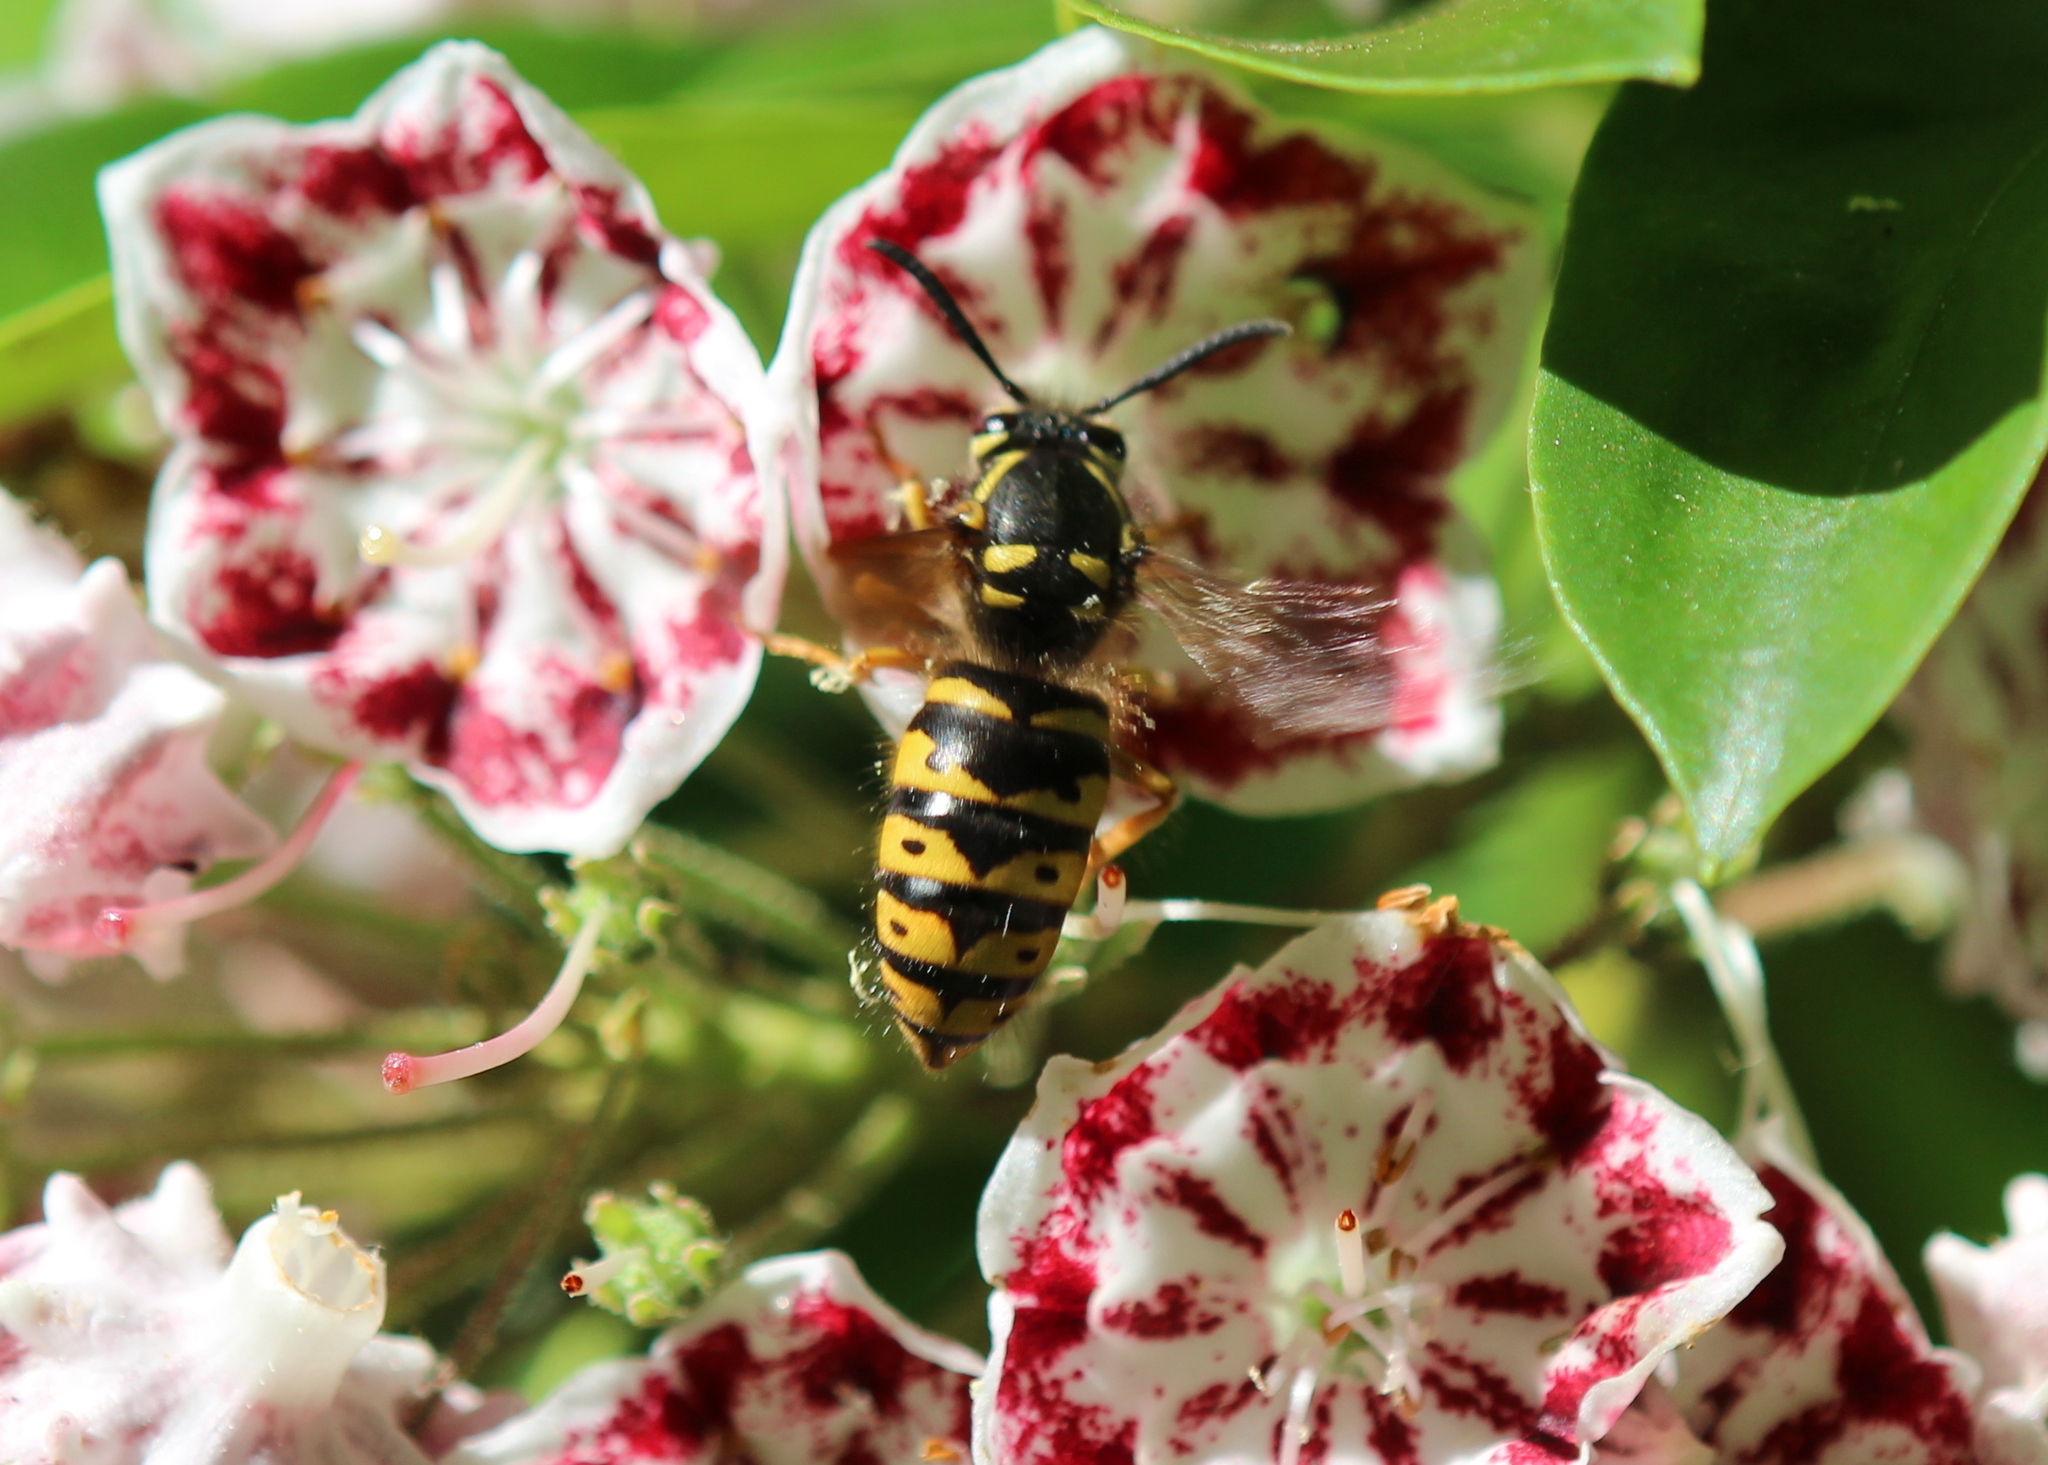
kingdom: Animalia
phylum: Arthropoda
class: Insecta
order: Hymenoptera
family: Vespidae
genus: Dolichovespula
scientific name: Dolichovespula arenaria
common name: Aerial yellowjacket
